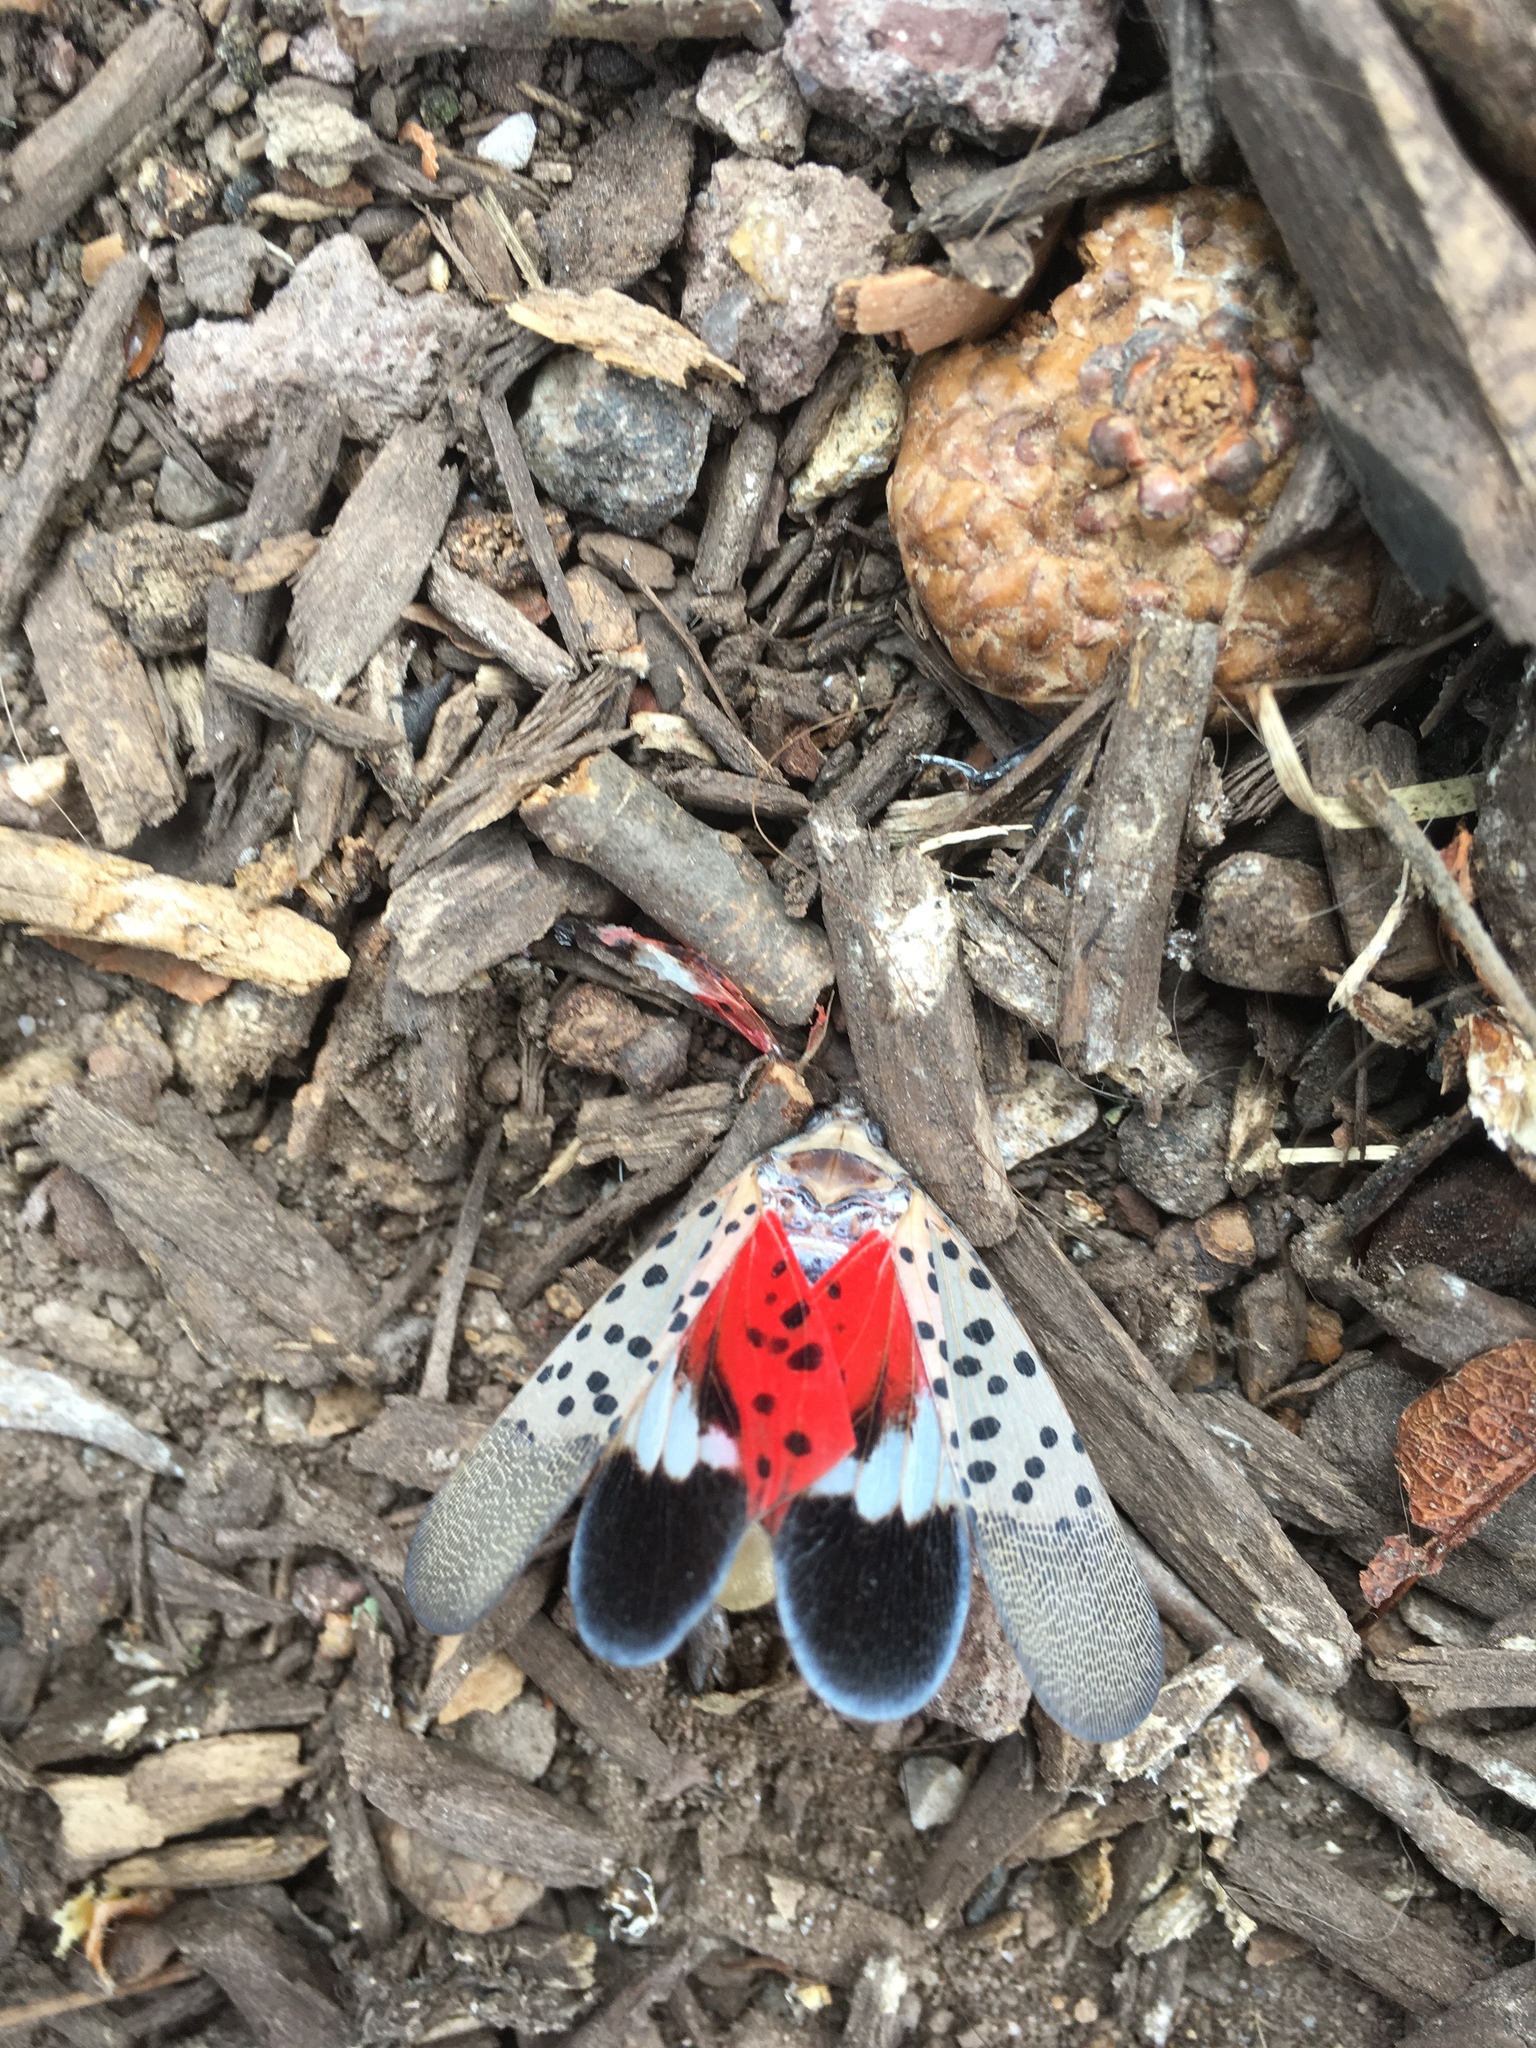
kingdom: Animalia
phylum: Arthropoda
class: Insecta
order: Hemiptera
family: Fulgoridae
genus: Lycorma
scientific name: Lycorma delicatula
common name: Spotted lanternfly
